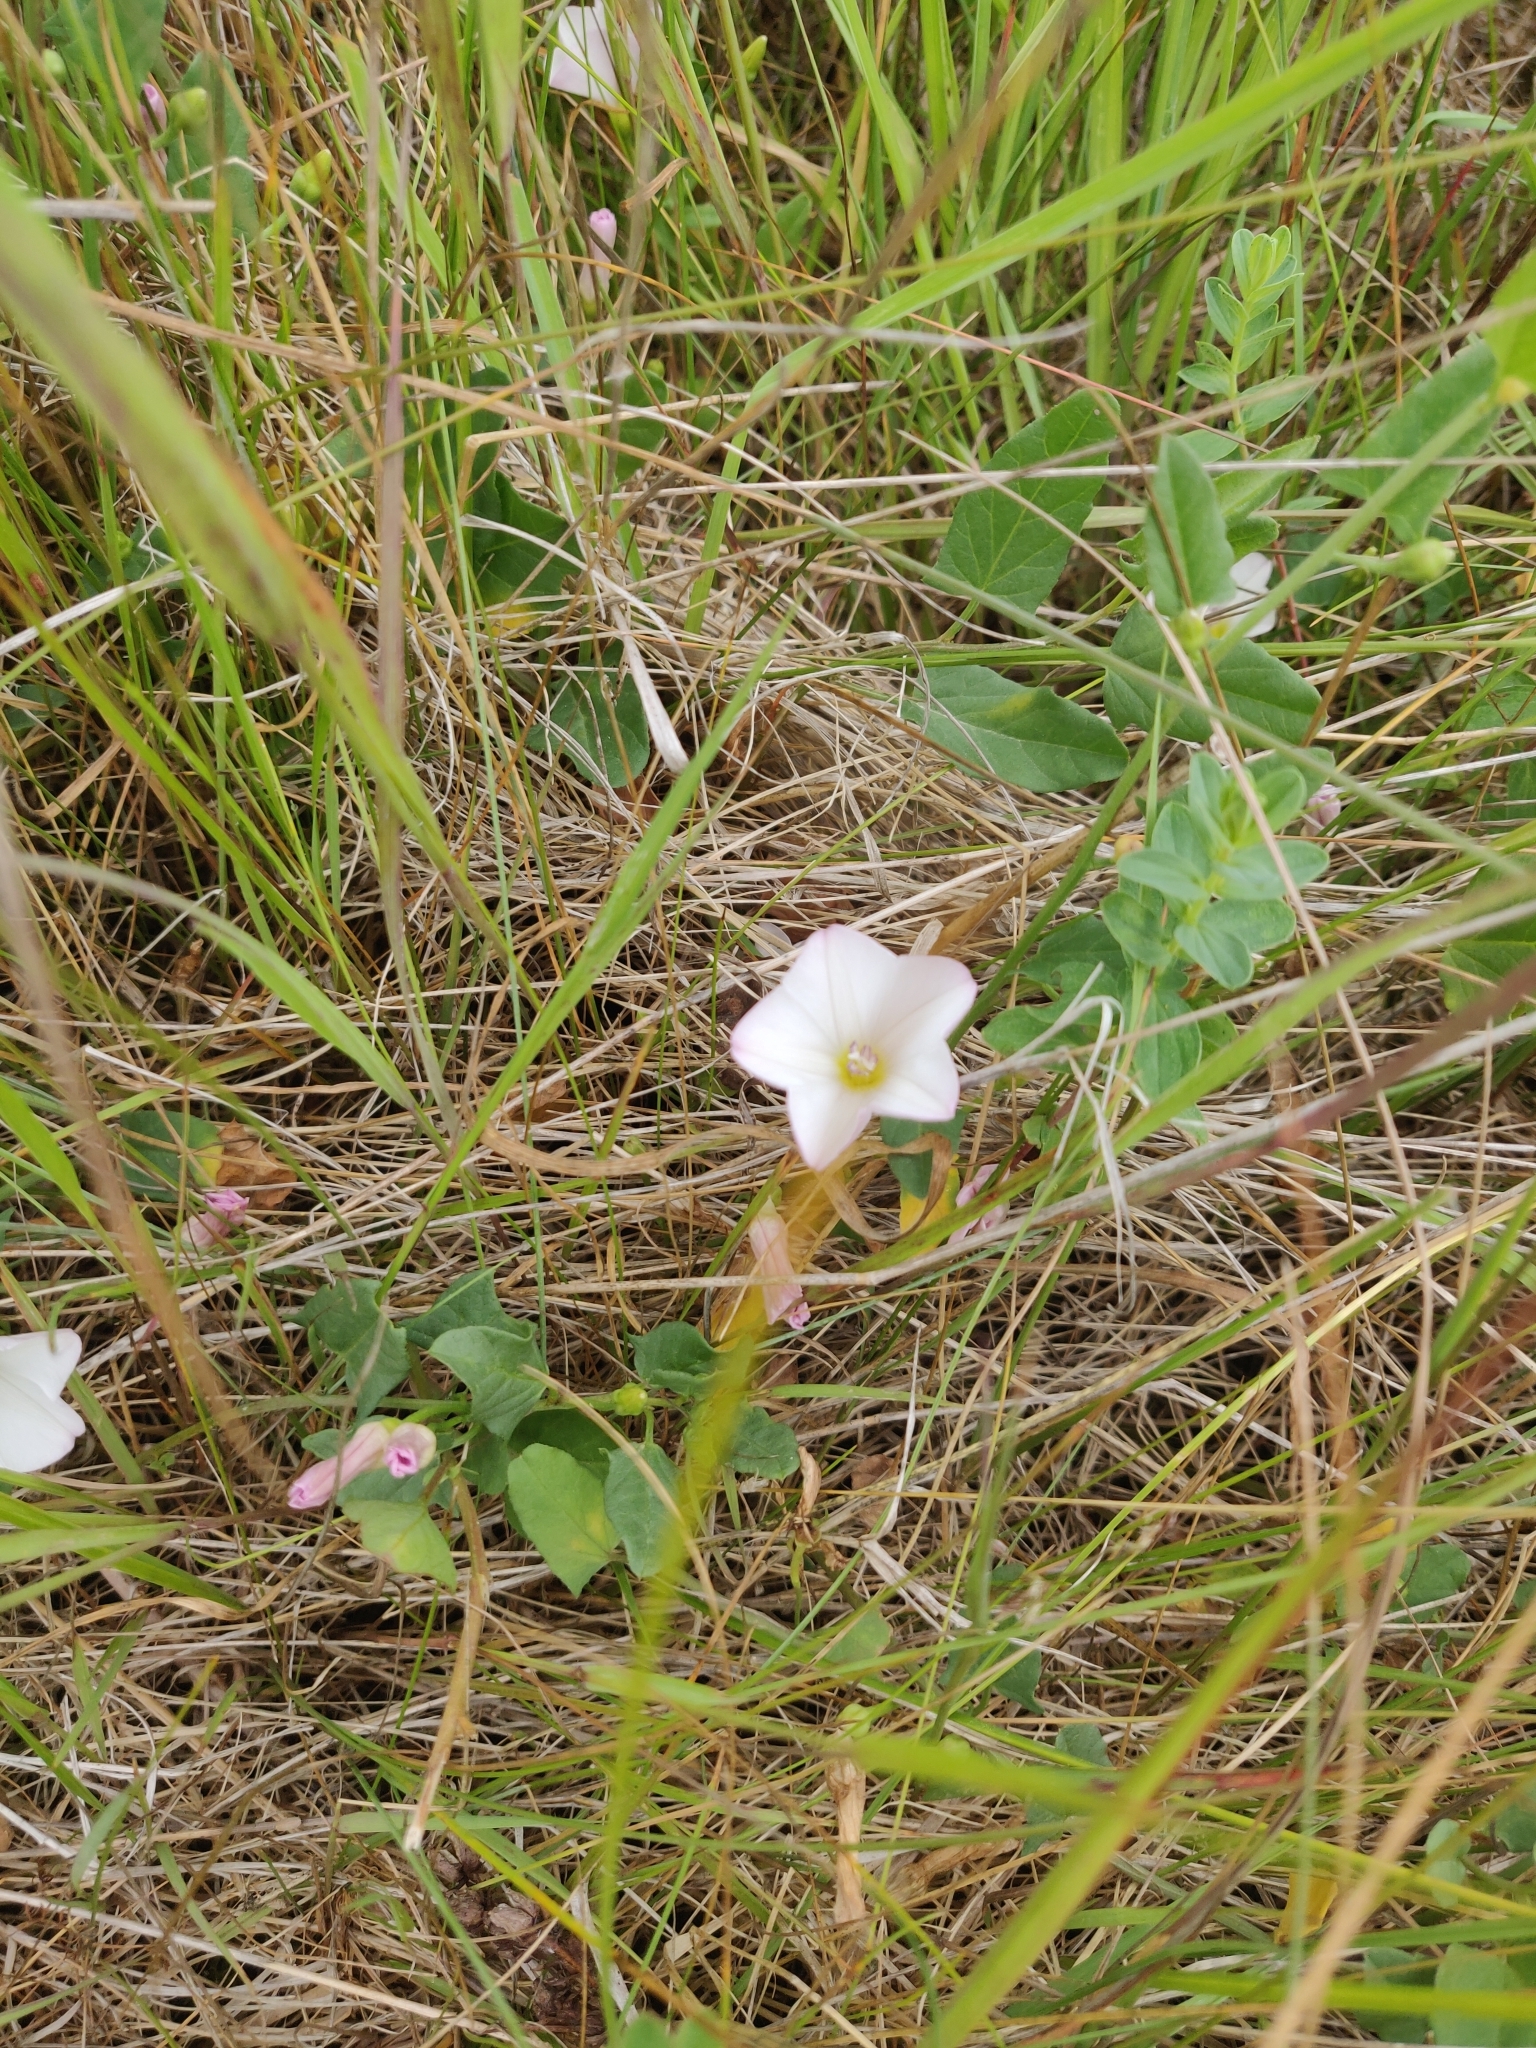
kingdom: Plantae
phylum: Tracheophyta
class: Magnoliopsida
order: Solanales
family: Convolvulaceae
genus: Convolvulus
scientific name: Convolvulus arvensis
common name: Field bindweed
